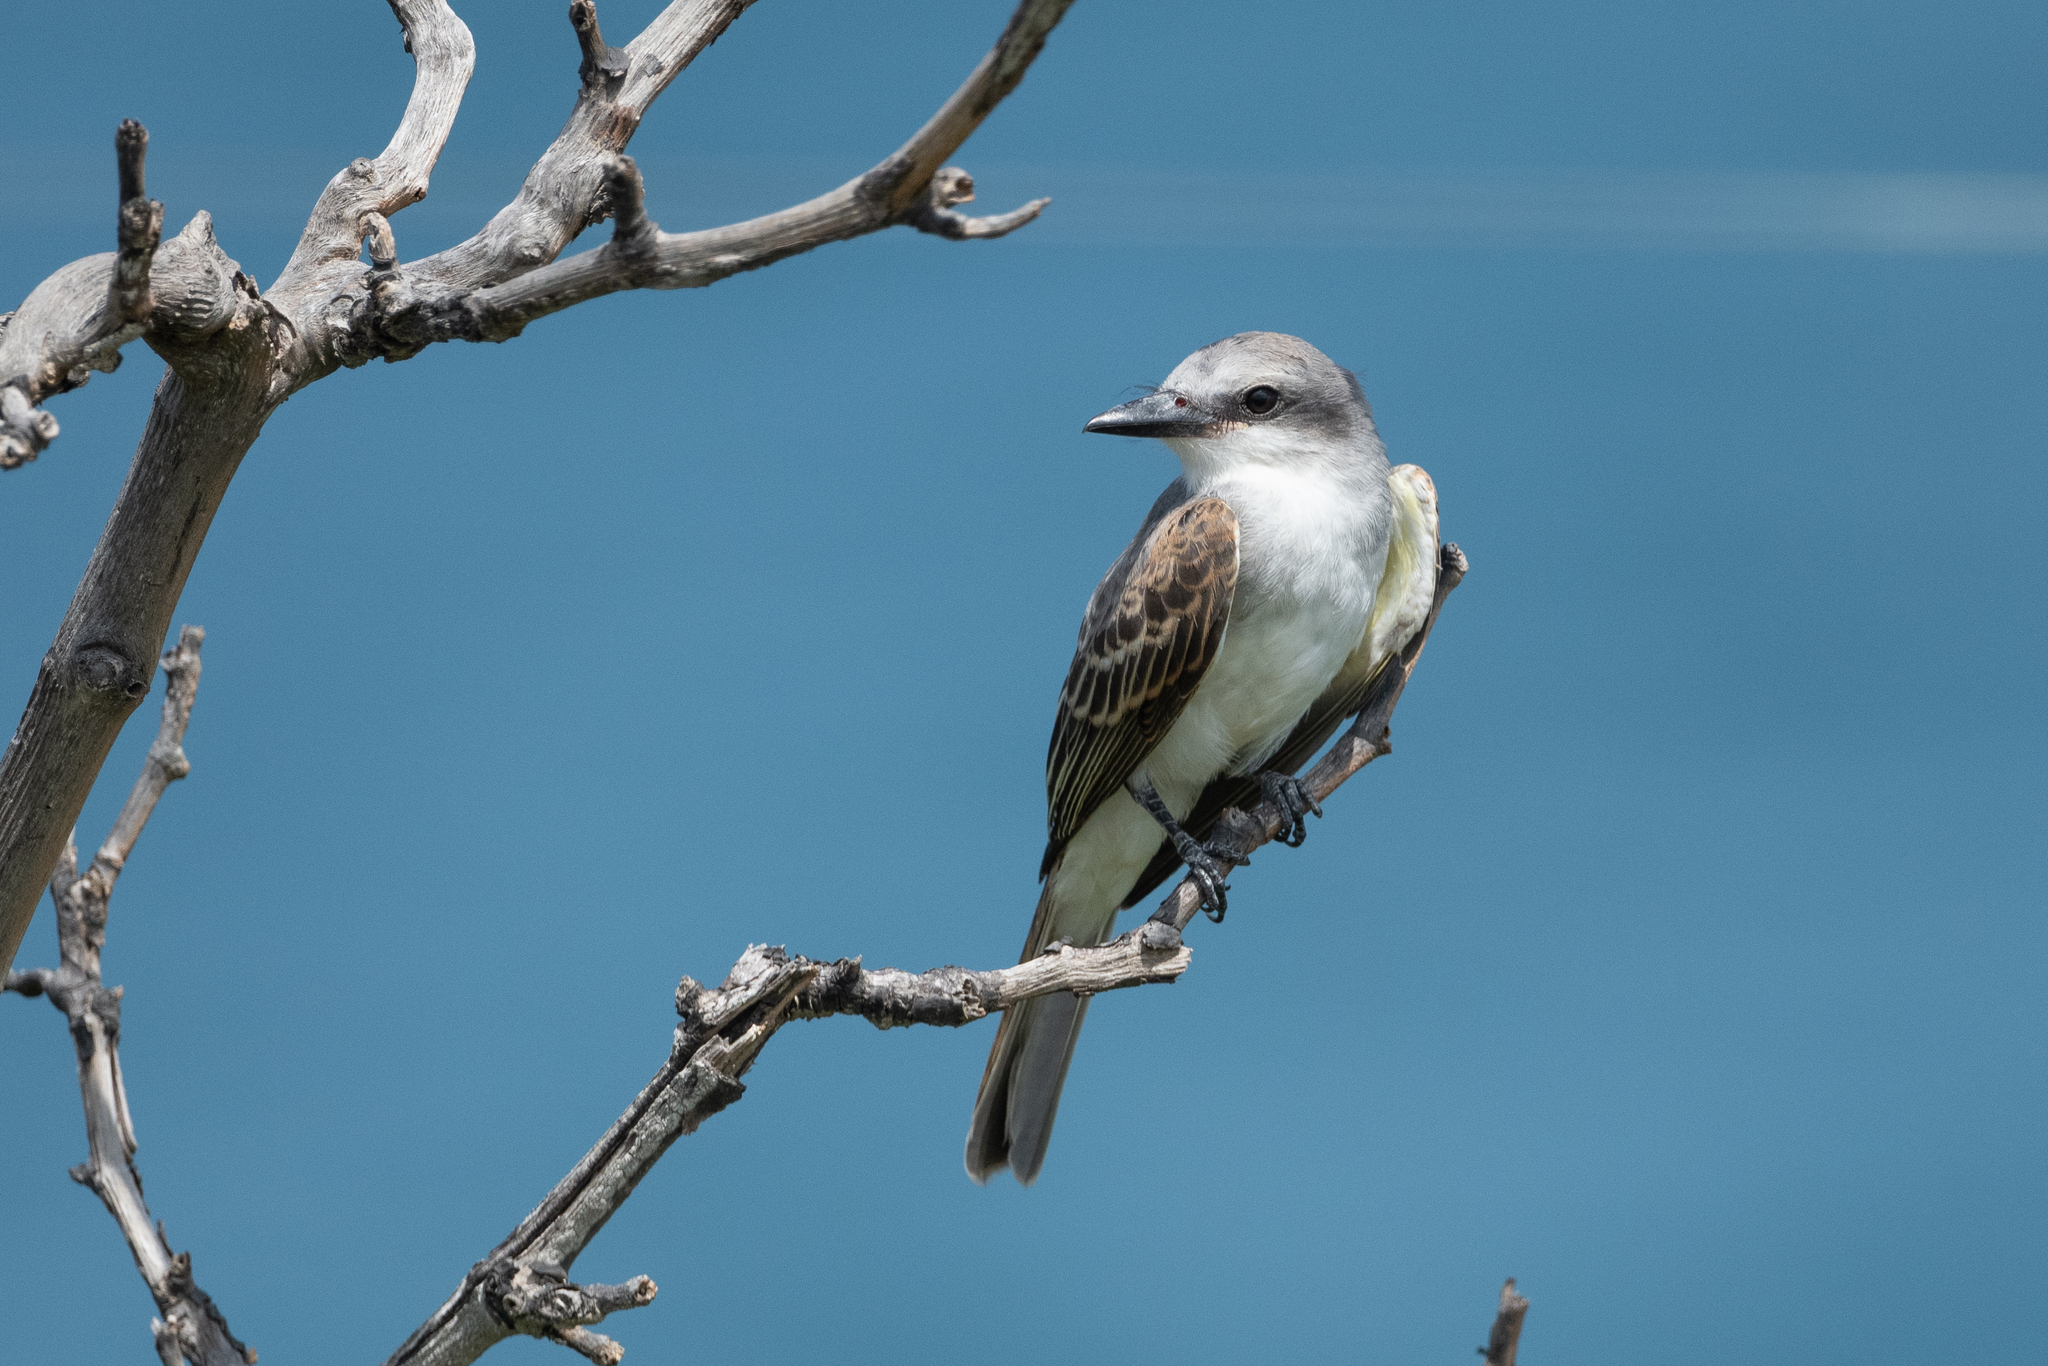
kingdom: Animalia
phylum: Chordata
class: Aves
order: Passeriformes
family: Tyrannidae
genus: Tyrannus
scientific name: Tyrannus dominicensis
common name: Gray kingbird
